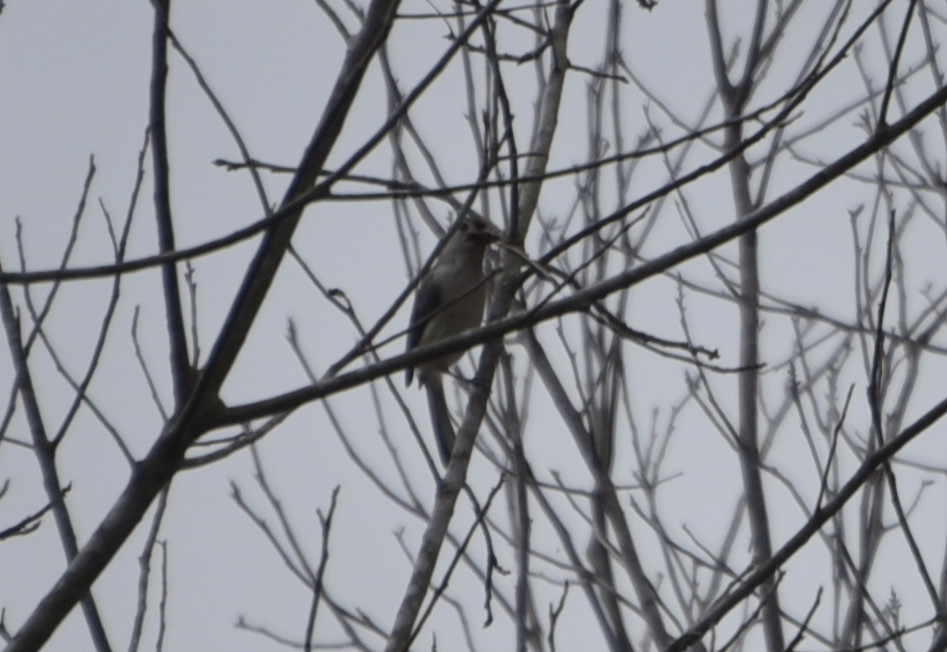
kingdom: Animalia
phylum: Chordata
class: Aves
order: Passeriformes
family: Paridae
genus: Baeolophus
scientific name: Baeolophus bicolor
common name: Tufted titmouse
